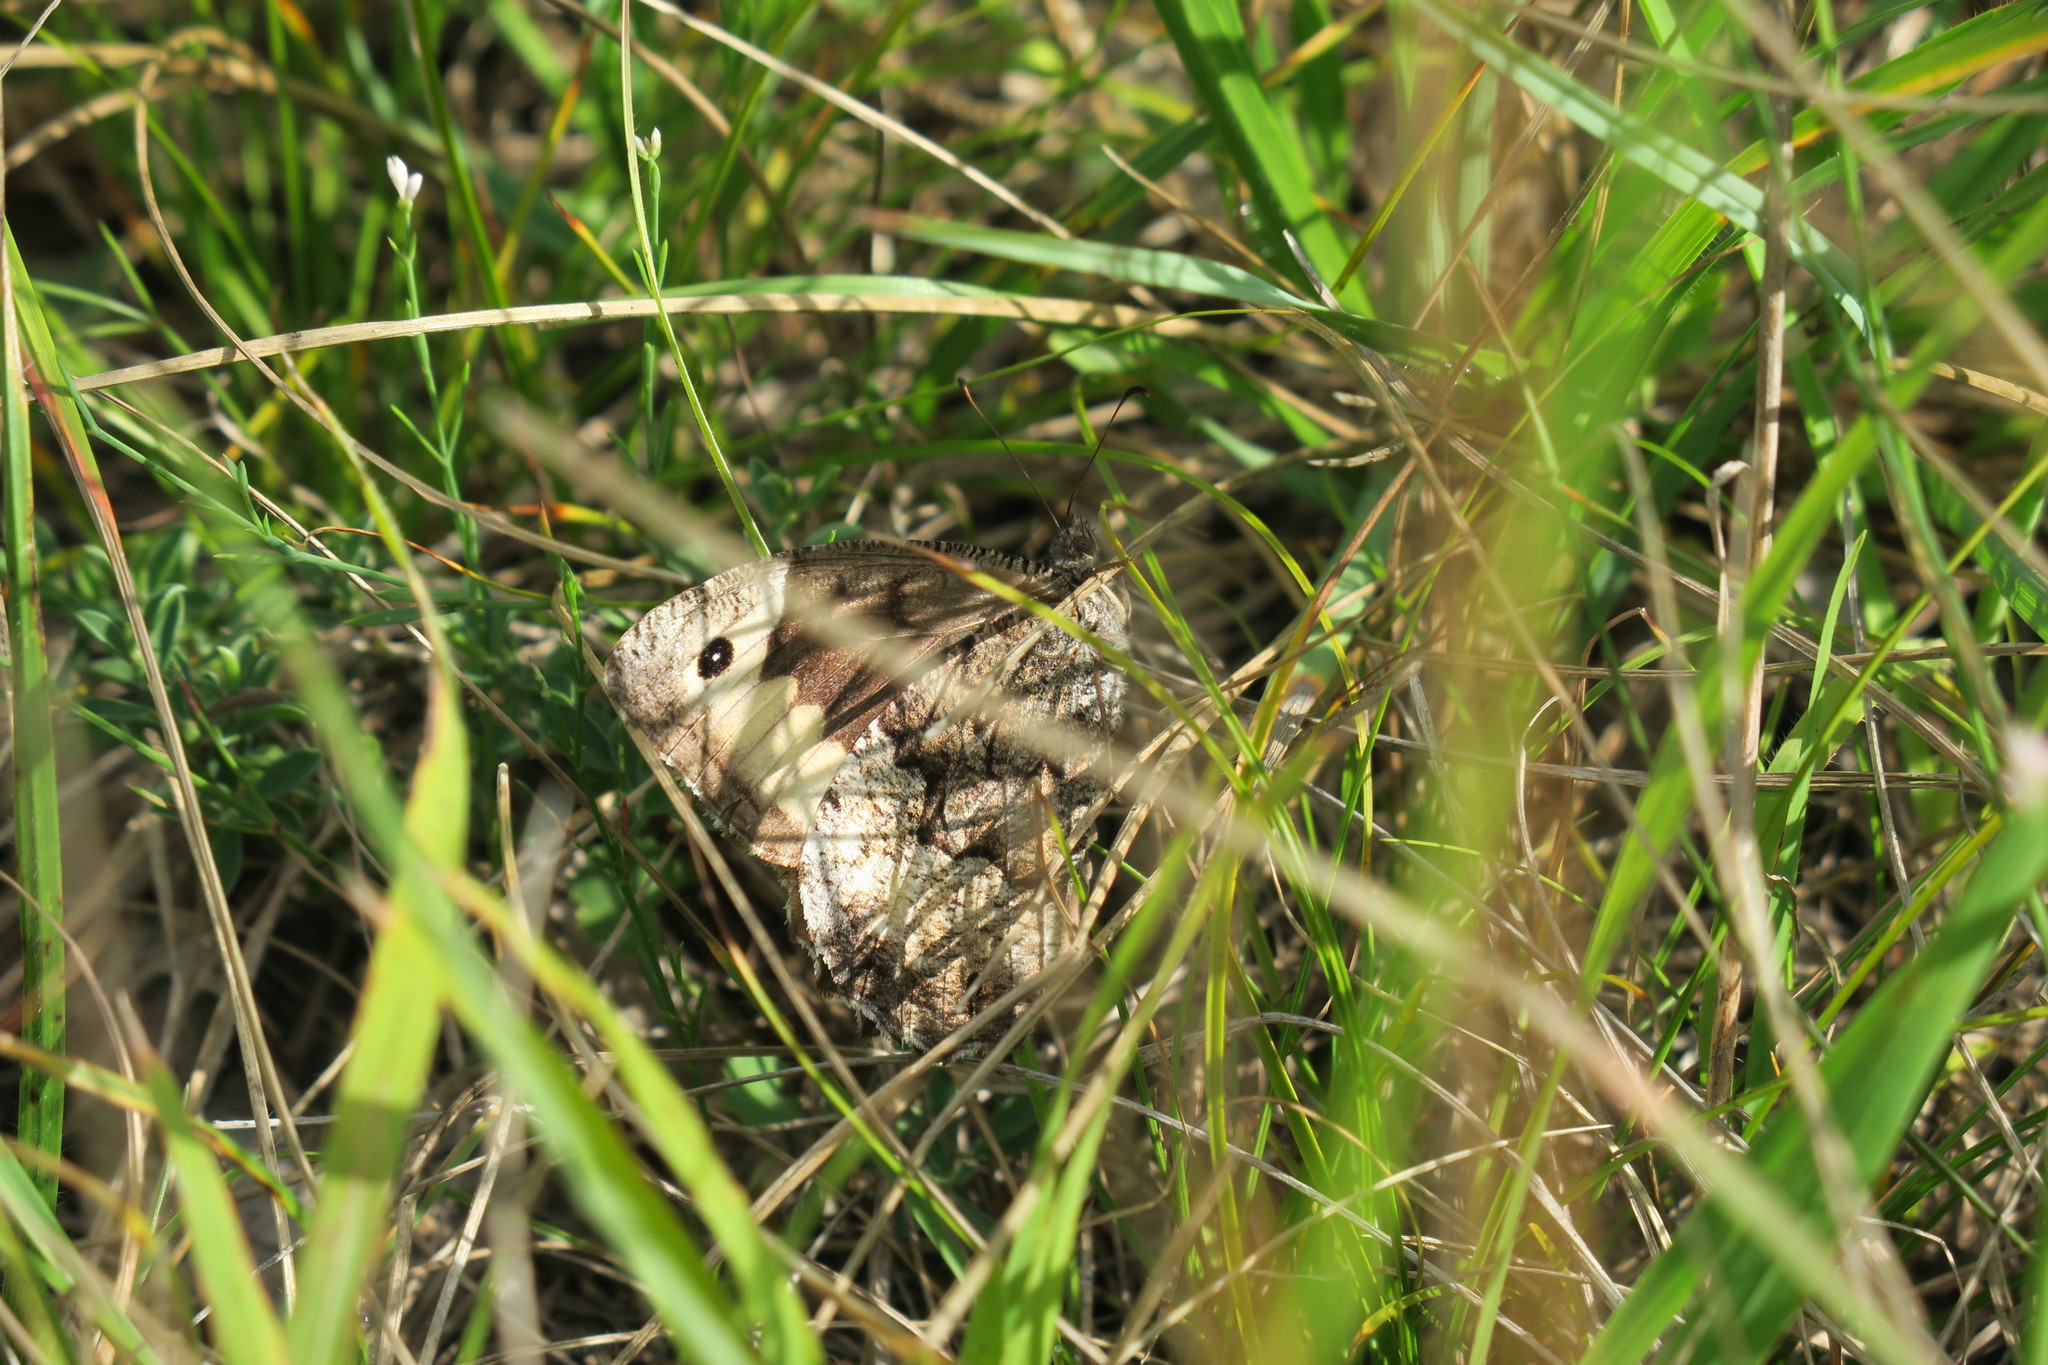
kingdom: Animalia
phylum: Arthropoda
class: Insecta
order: Lepidoptera
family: Nymphalidae
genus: Hipparchia
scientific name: Hipparchia fagi
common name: Woodland grayling
